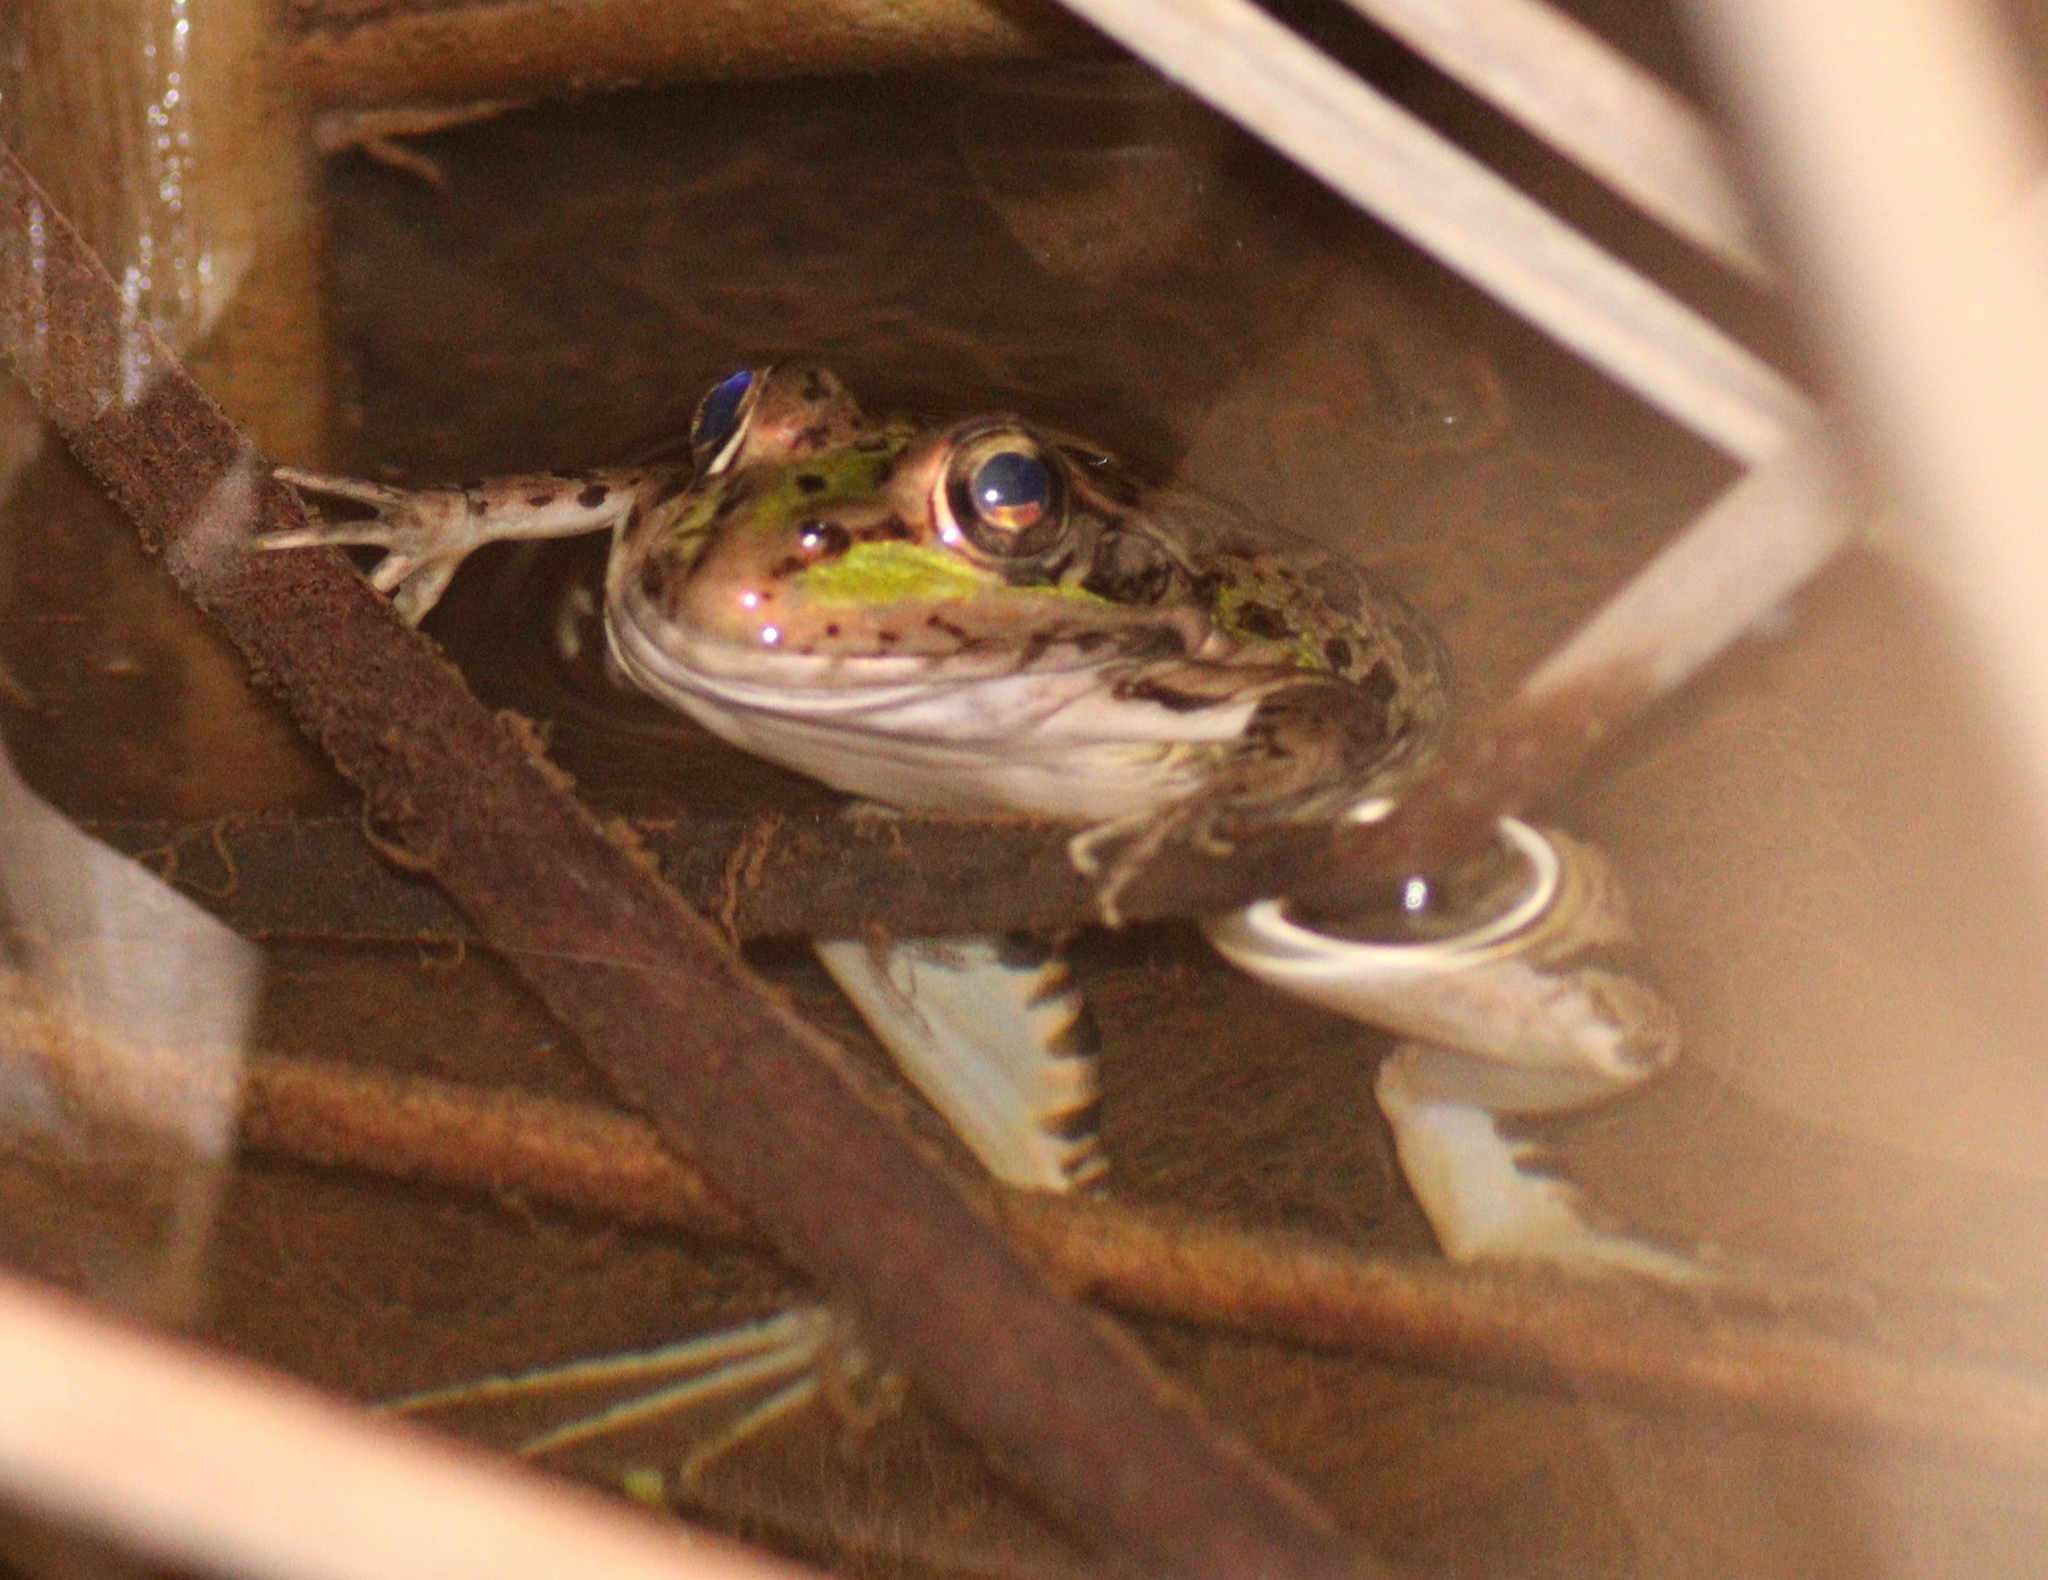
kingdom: Animalia
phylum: Chordata
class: Amphibia
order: Anura
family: Ranidae
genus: Pelophylax
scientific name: Pelophylax perezi
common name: Perez's frog
